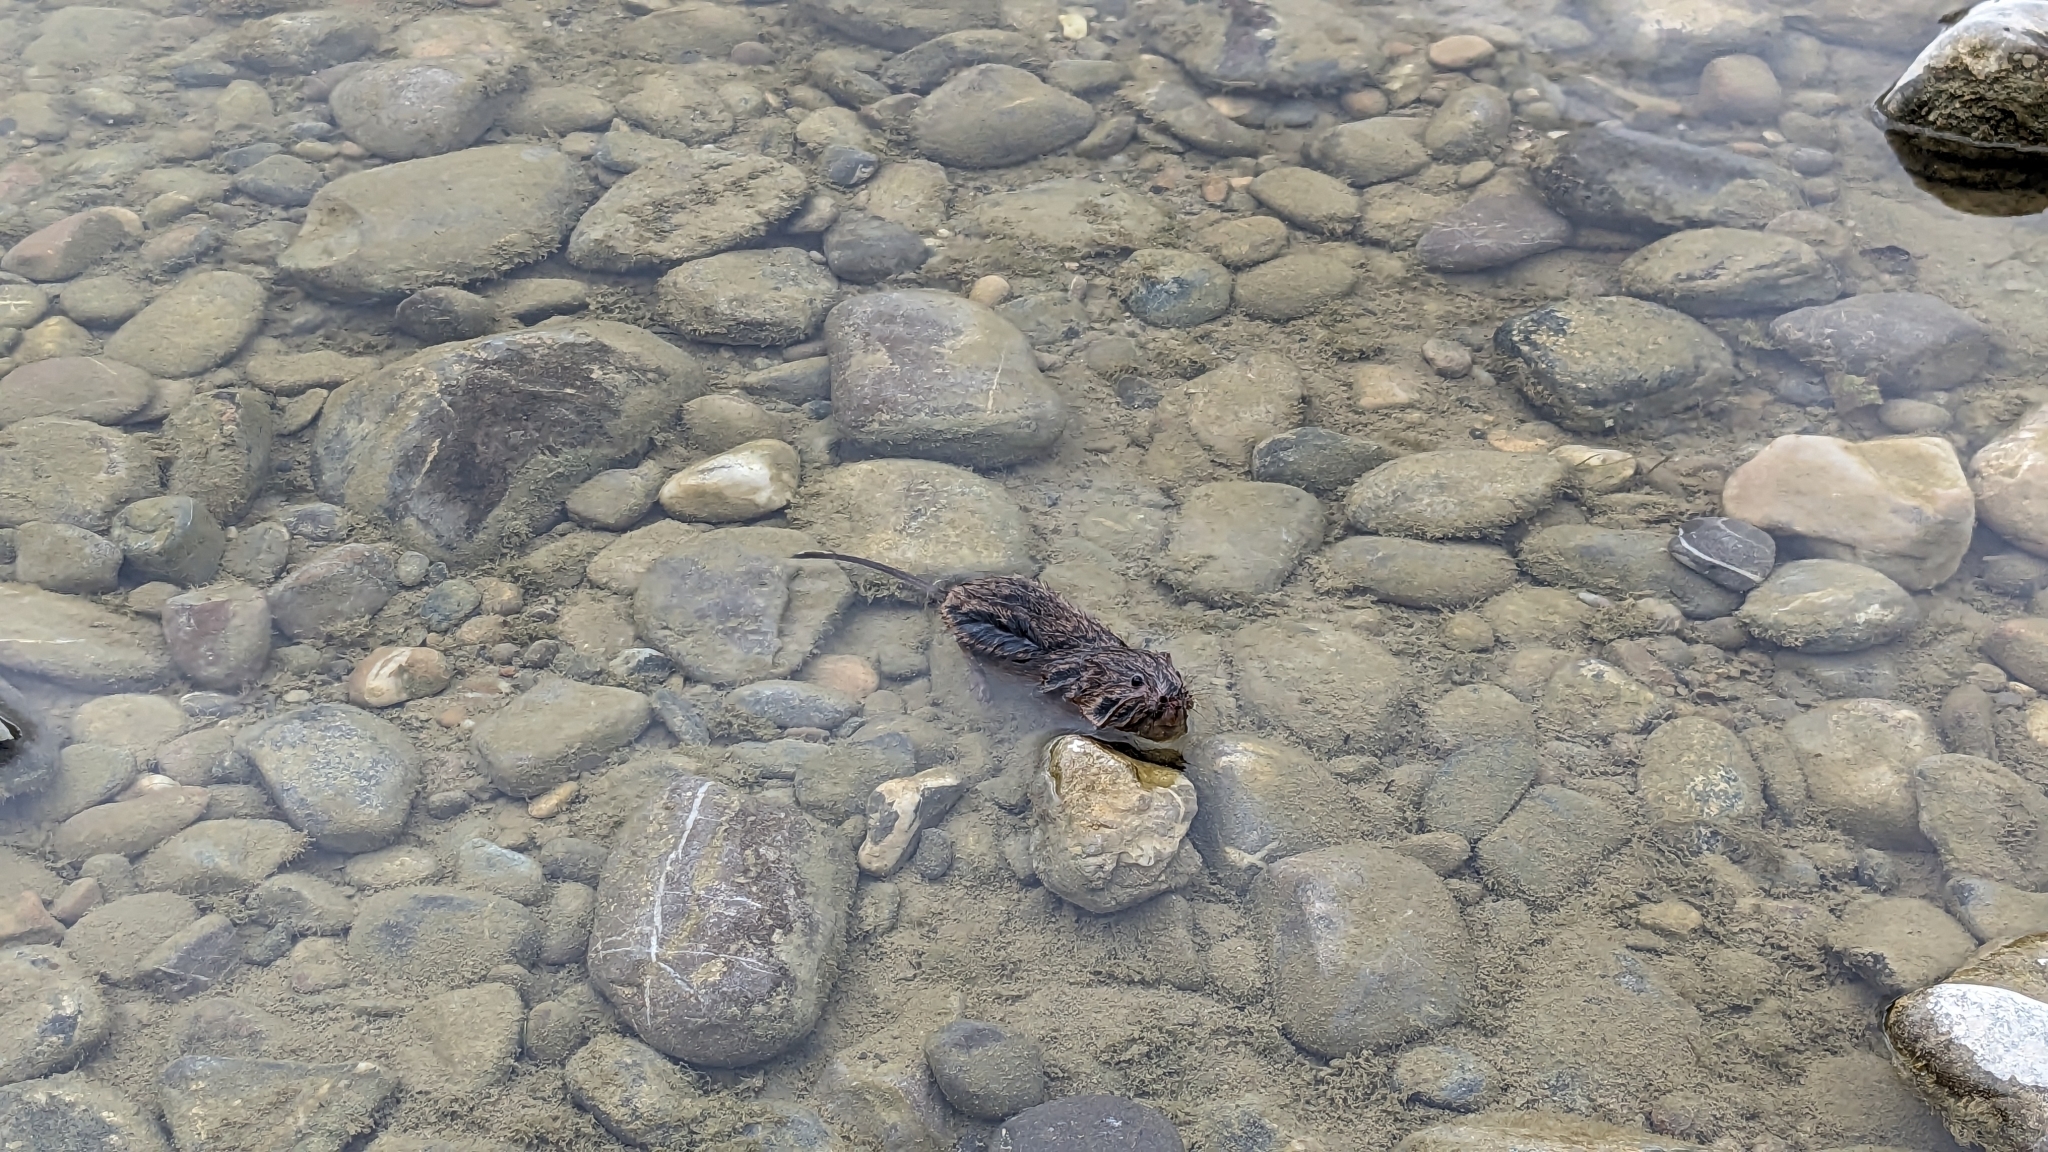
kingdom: Animalia
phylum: Chordata
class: Mammalia
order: Rodentia
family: Cricetidae
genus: Ondatra
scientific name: Ondatra zibethicus
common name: Muskrat
